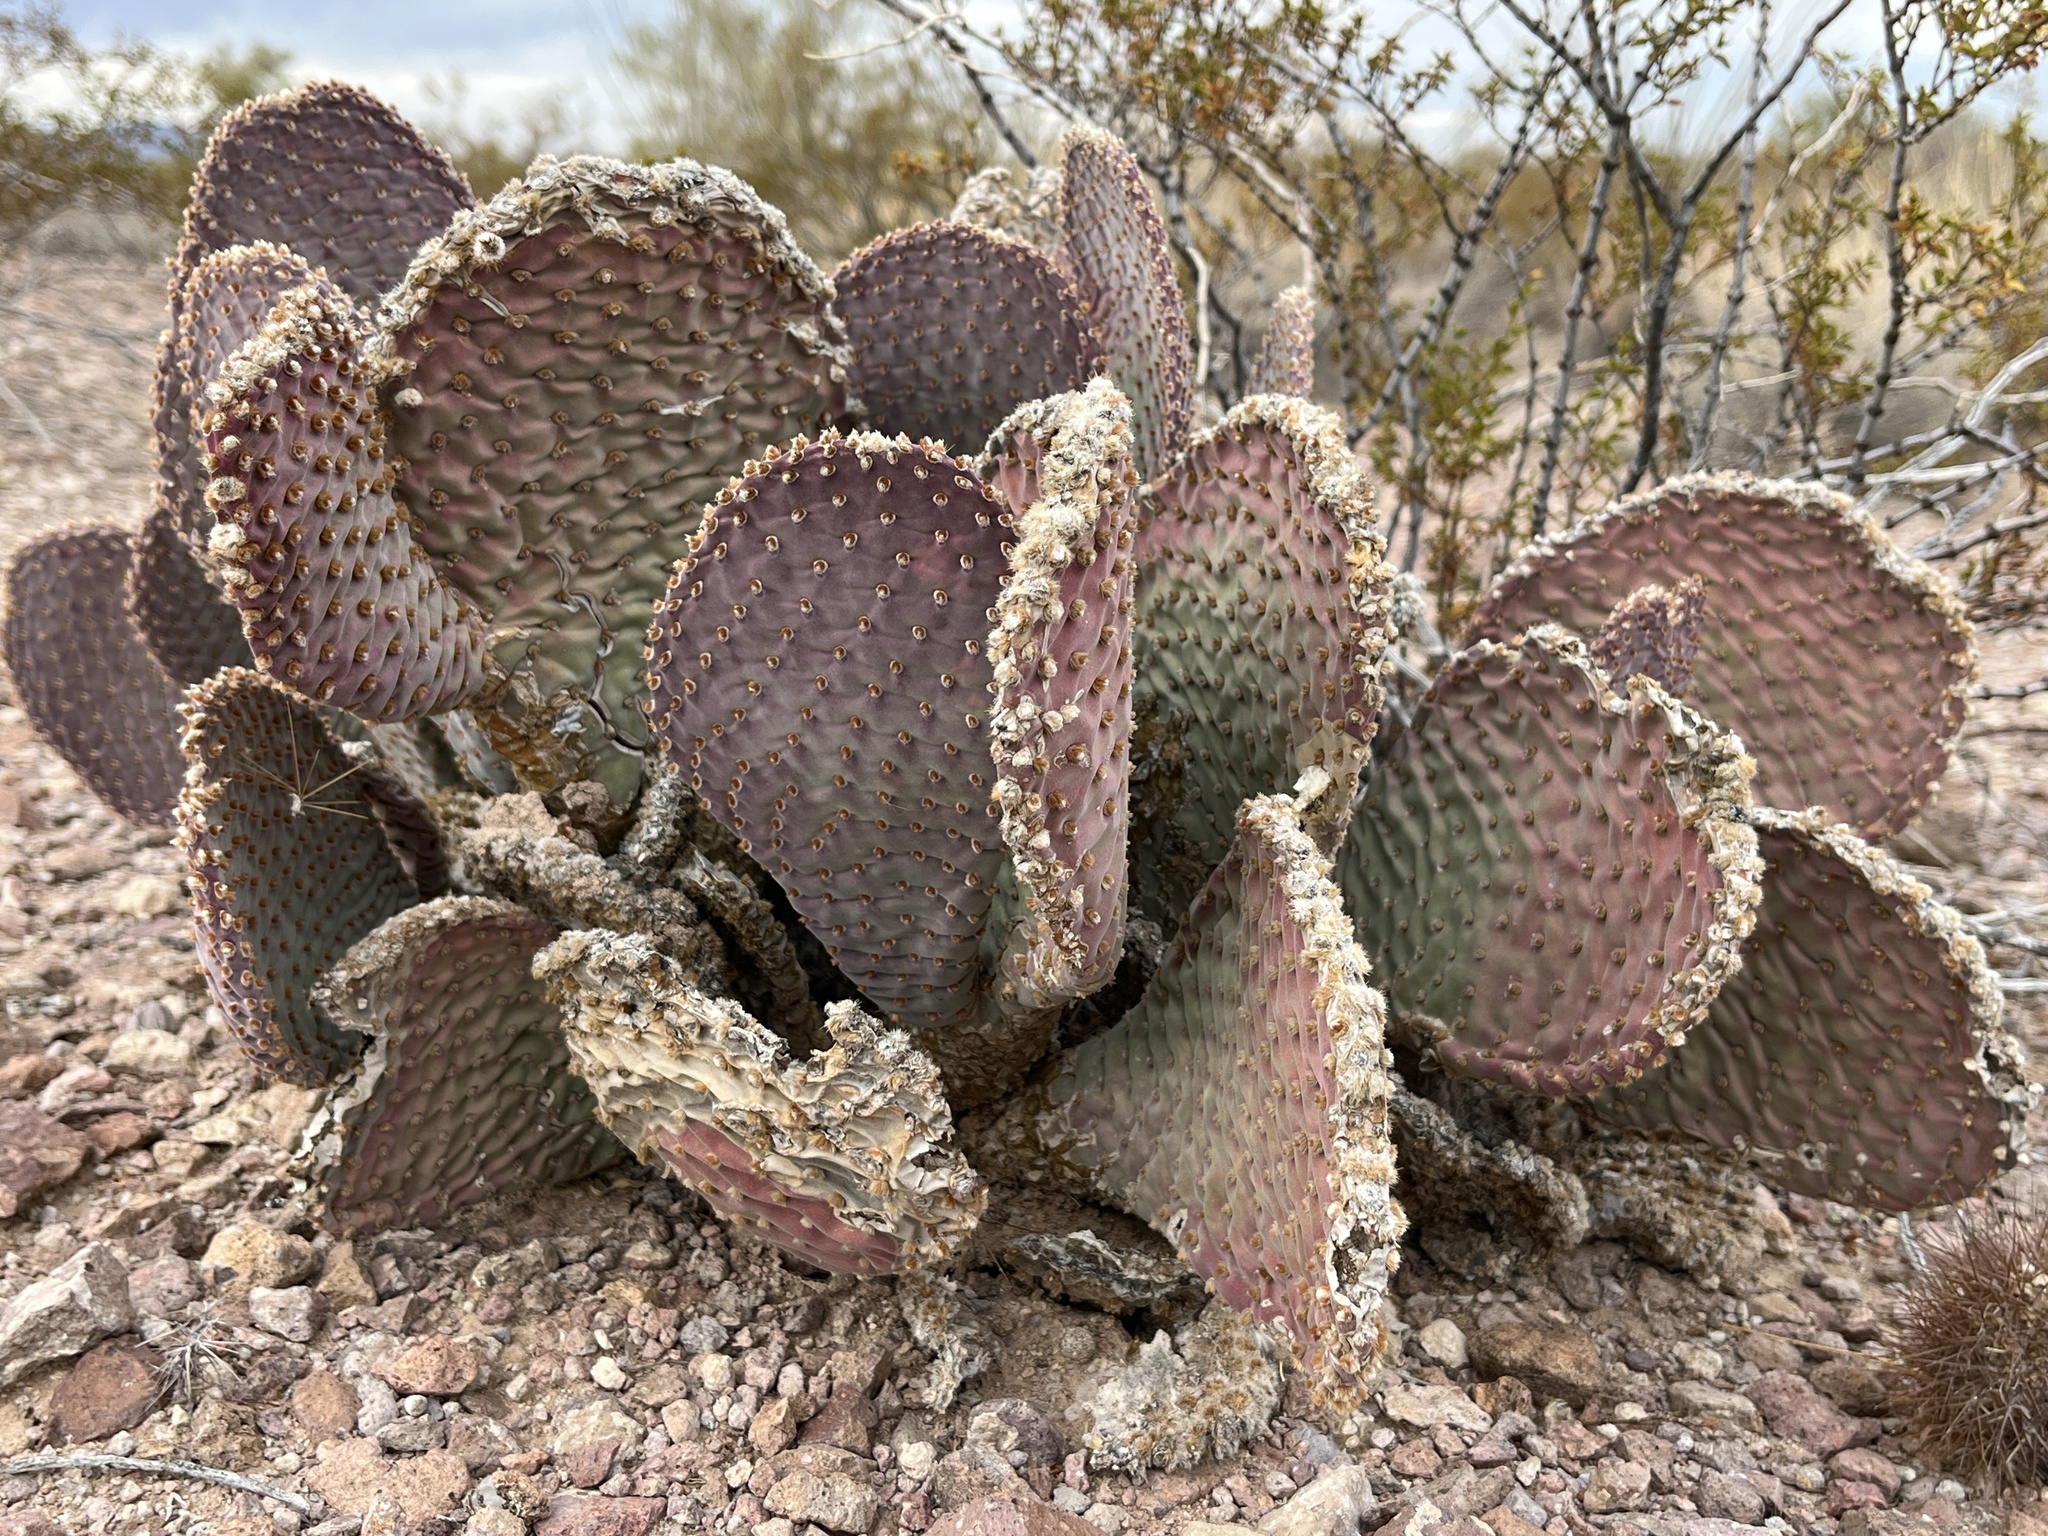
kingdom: Plantae
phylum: Tracheophyta
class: Magnoliopsida
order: Caryophyllales
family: Cactaceae
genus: Opuntia
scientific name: Opuntia basilaris
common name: Beavertail prickly-pear
